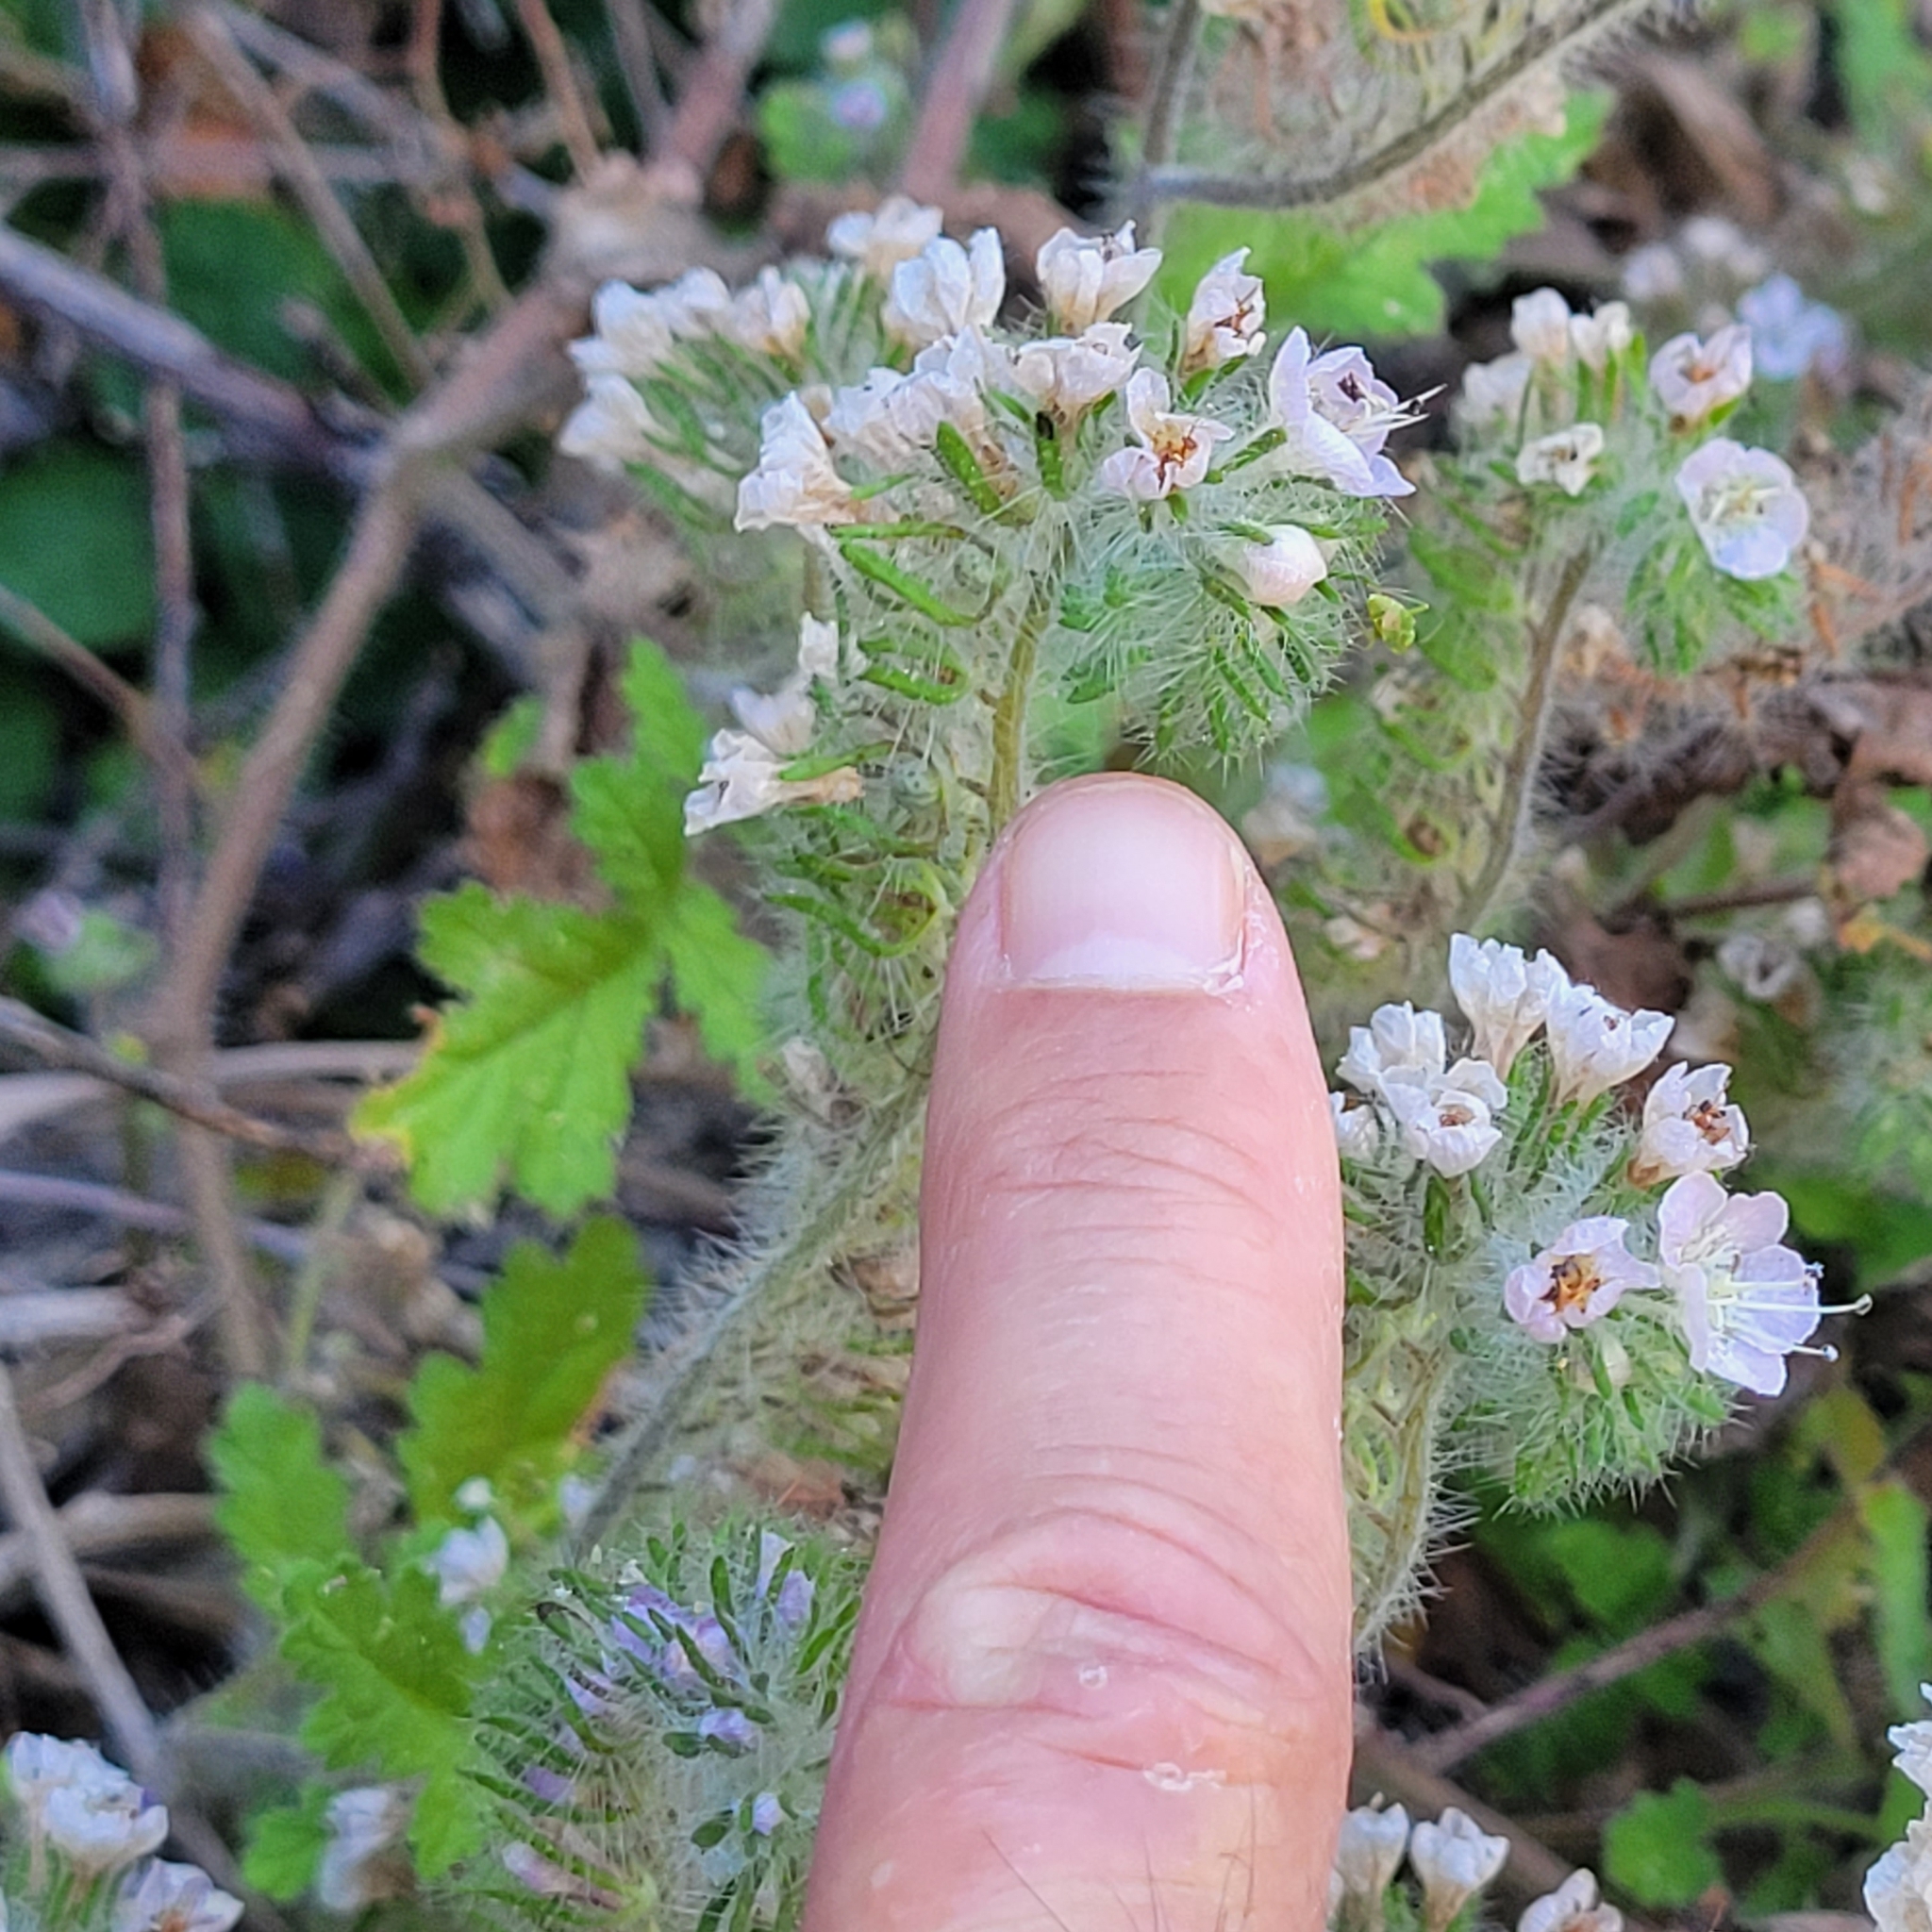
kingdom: Plantae
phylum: Tracheophyta
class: Magnoliopsida
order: Boraginales
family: Hydrophyllaceae
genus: Phacelia
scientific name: Phacelia cicutaria
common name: Caterpillar phacelia
